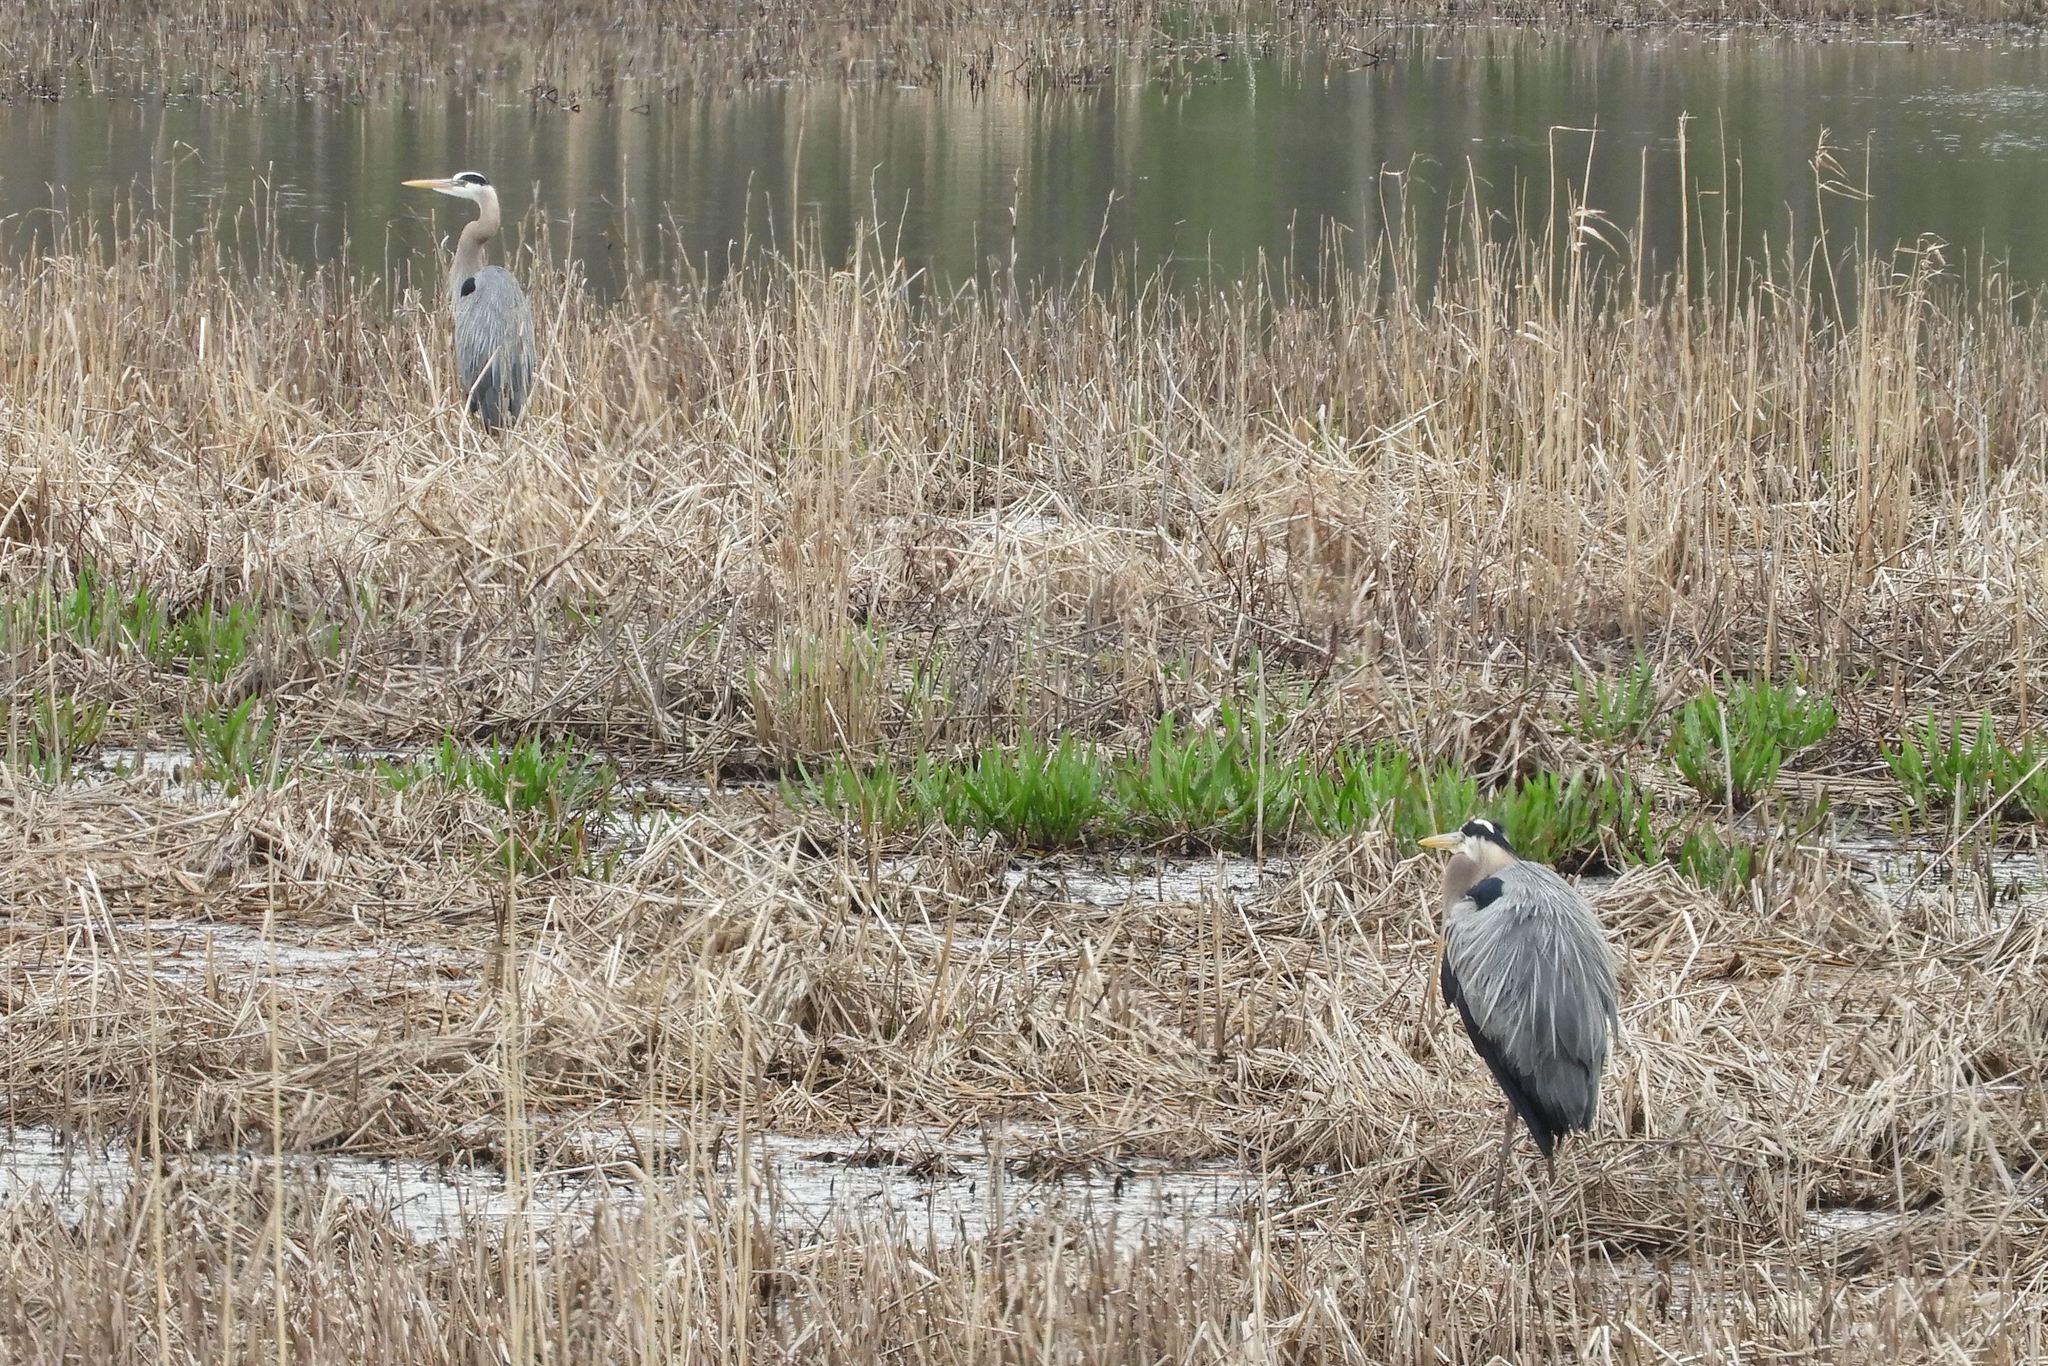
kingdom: Animalia
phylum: Chordata
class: Aves
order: Pelecaniformes
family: Ardeidae
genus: Ardea
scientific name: Ardea herodias
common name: Great blue heron
